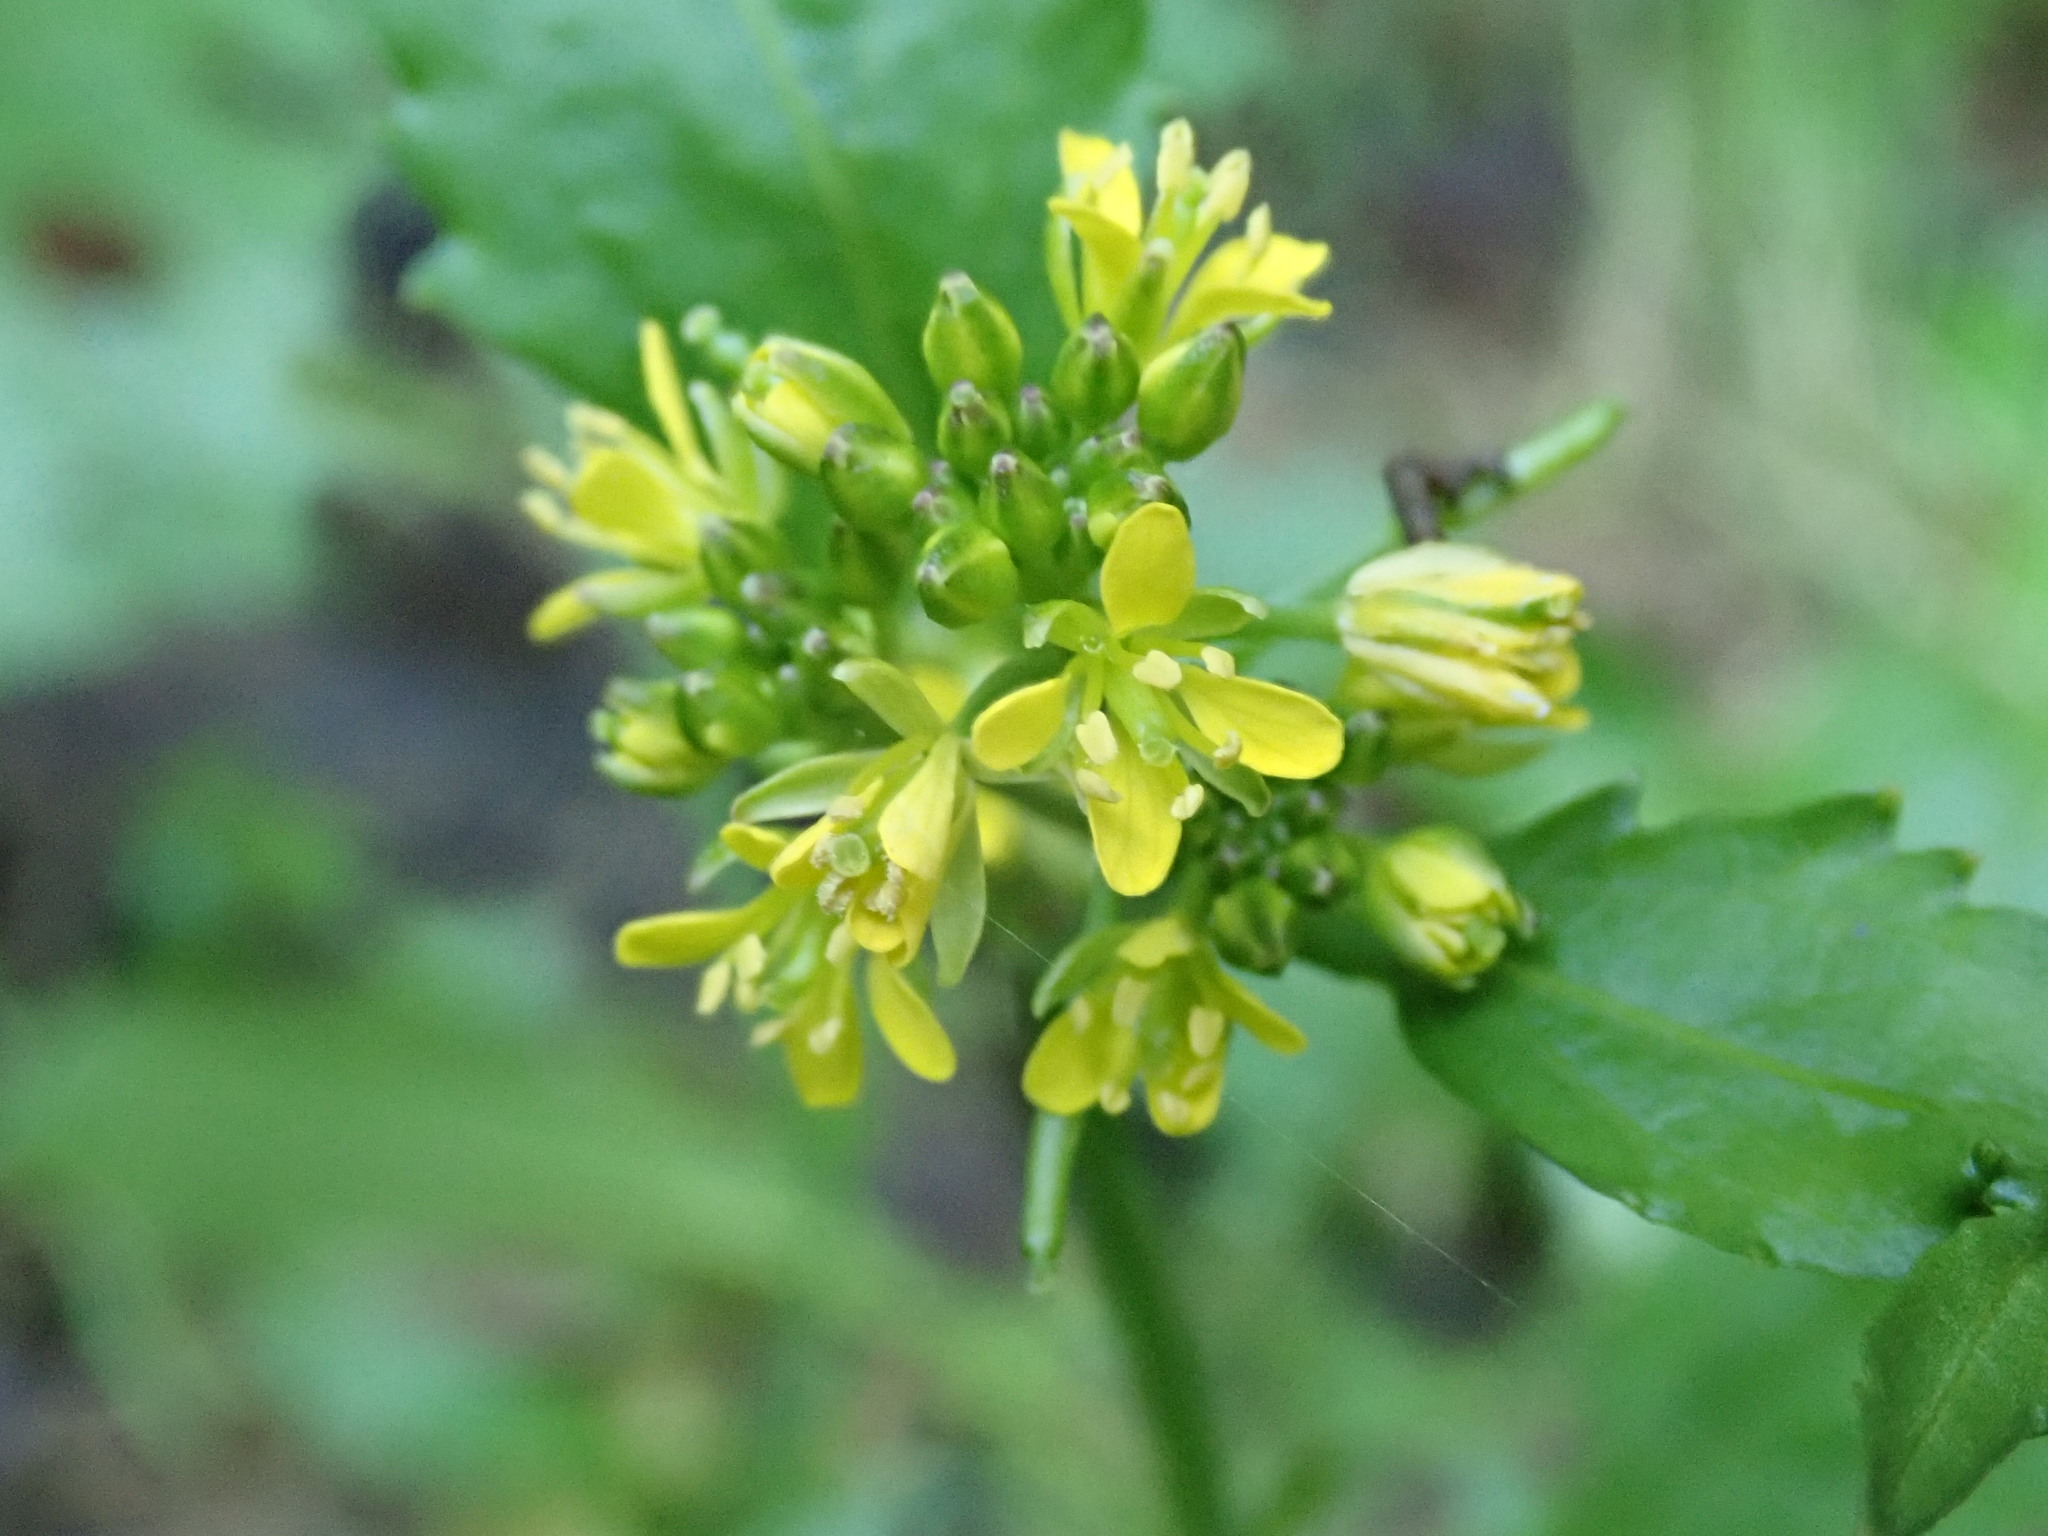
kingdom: Plantae
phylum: Tracheophyta
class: Magnoliopsida
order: Brassicales
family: Brassicaceae
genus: Rorippa
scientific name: Rorippa indica
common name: Variableleaf yellowcress
